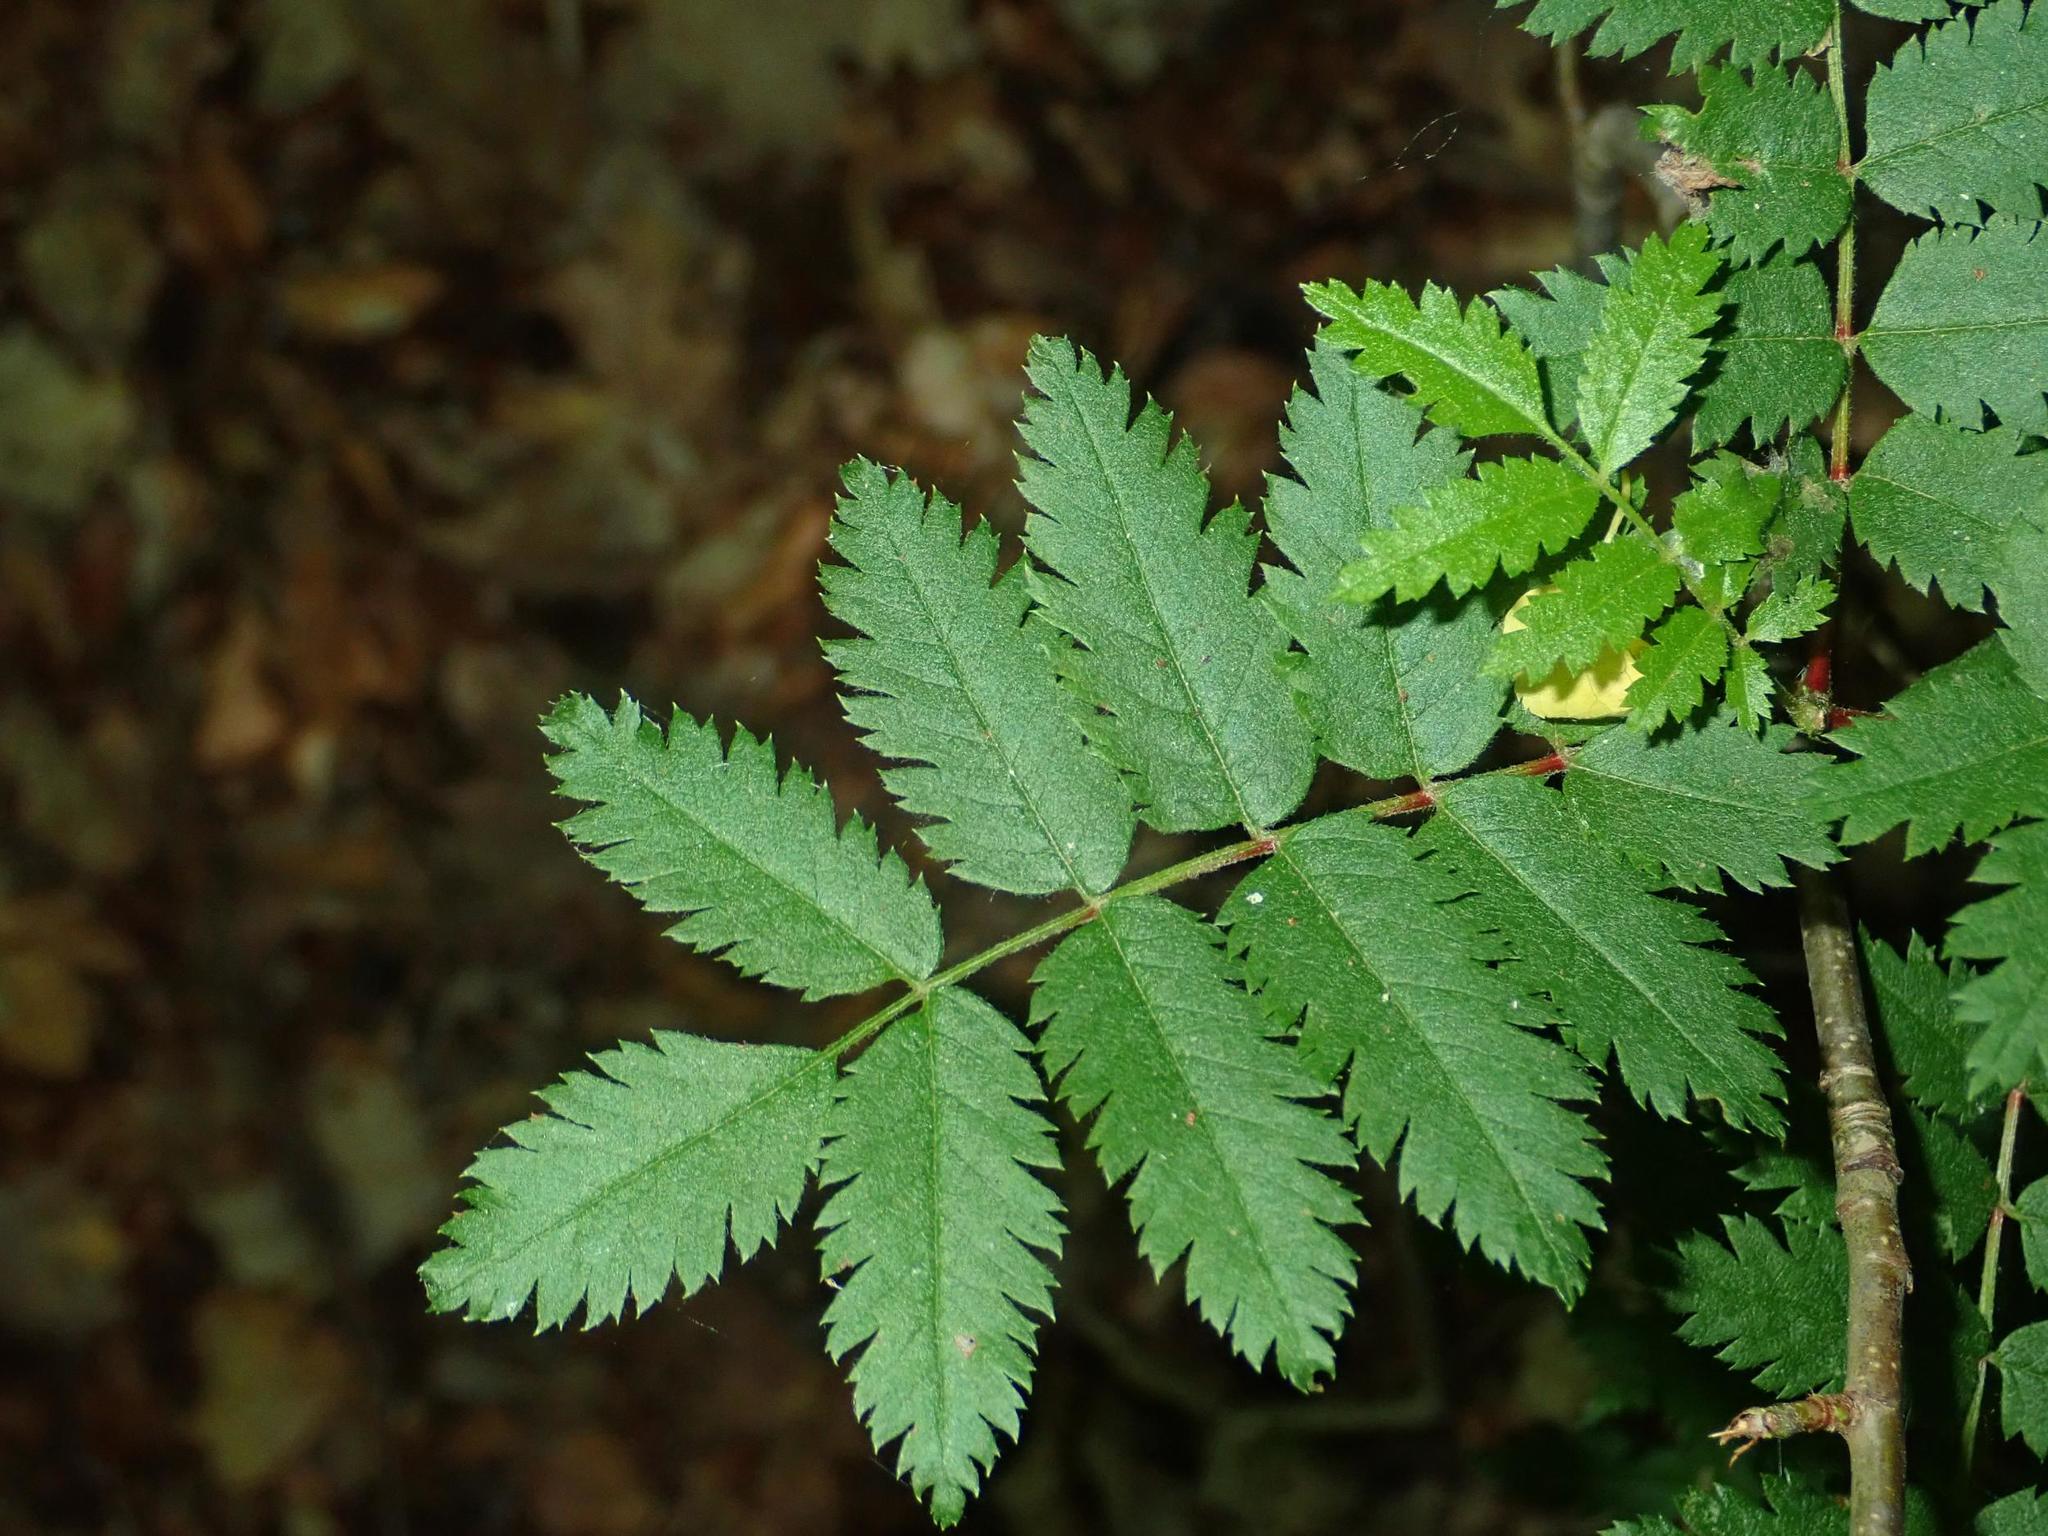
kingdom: Plantae
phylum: Tracheophyta
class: Magnoliopsida
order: Rosales
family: Rosaceae
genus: Sorbus
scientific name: Sorbus aucuparia
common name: Rowan
